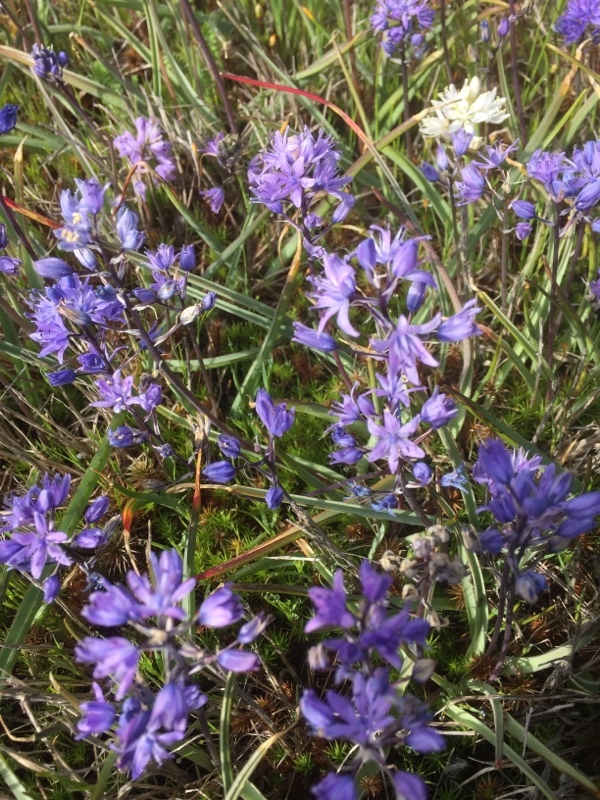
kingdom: Plantae
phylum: Tracheophyta
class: Liliopsida
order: Asparagales
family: Asparagaceae
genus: Scilla
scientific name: Scilla verna
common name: Spring squill
